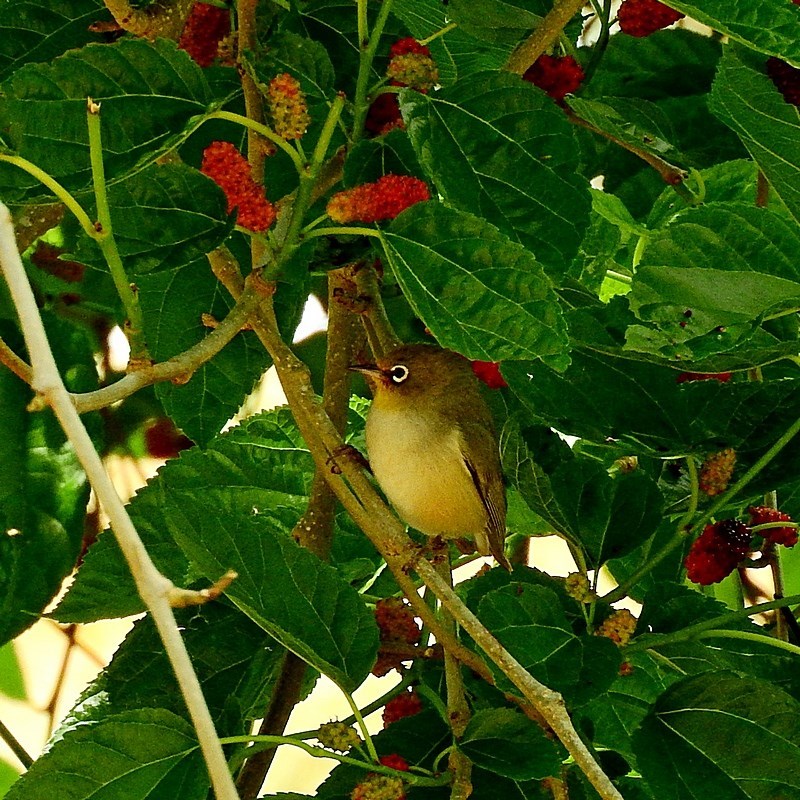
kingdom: Animalia
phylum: Chordata
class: Aves
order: Passeriformes
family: Zosteropidae
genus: Zosterops
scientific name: Zosterops lateralis
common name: Silvereye
